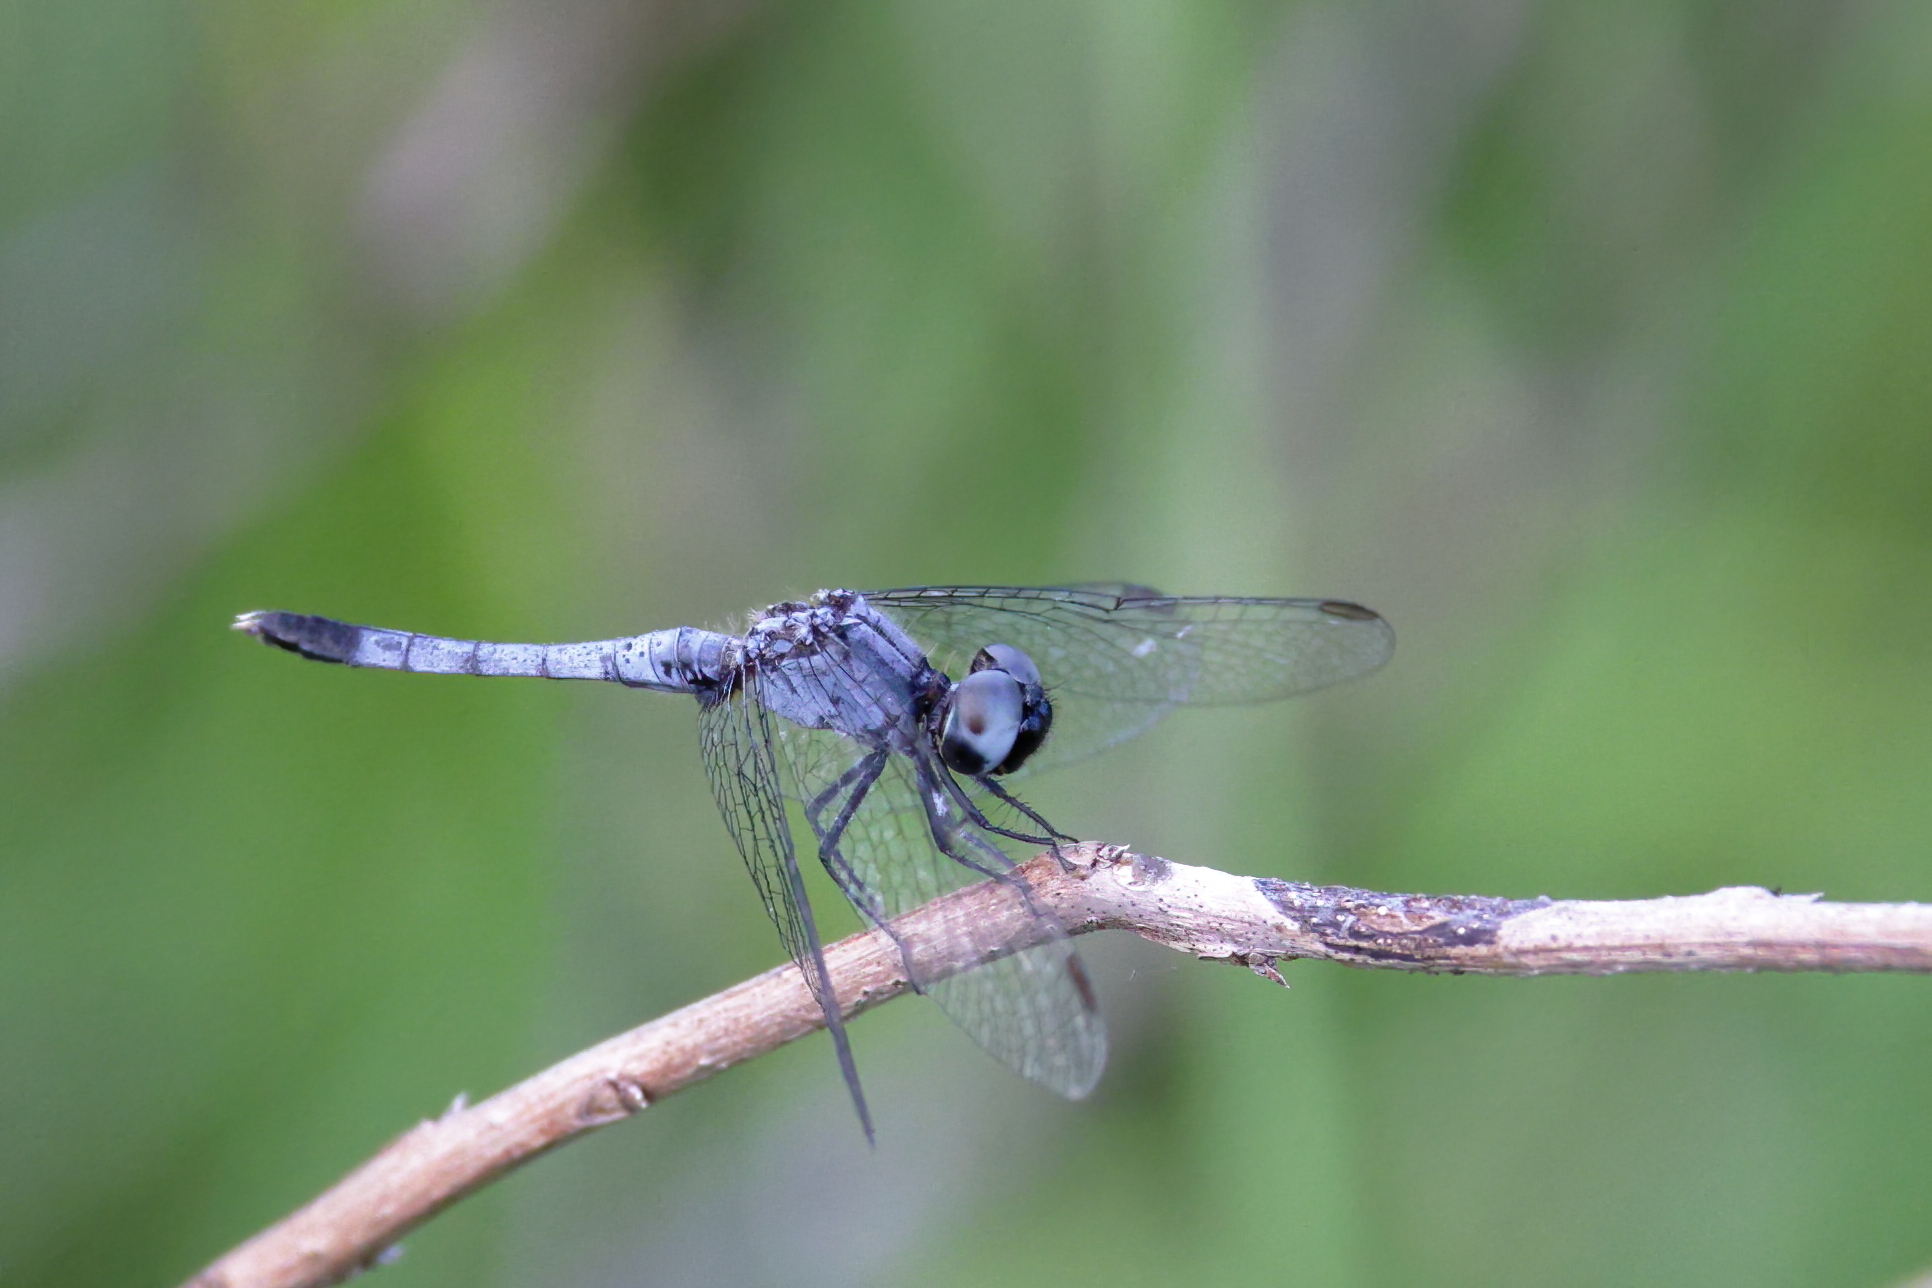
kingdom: Animalia
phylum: Arthropoda
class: Insecta
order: Odonata
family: Libellulidae
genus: Erythrodiplax
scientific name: Erythrodiplax minuscula
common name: Little blue dragonlet
